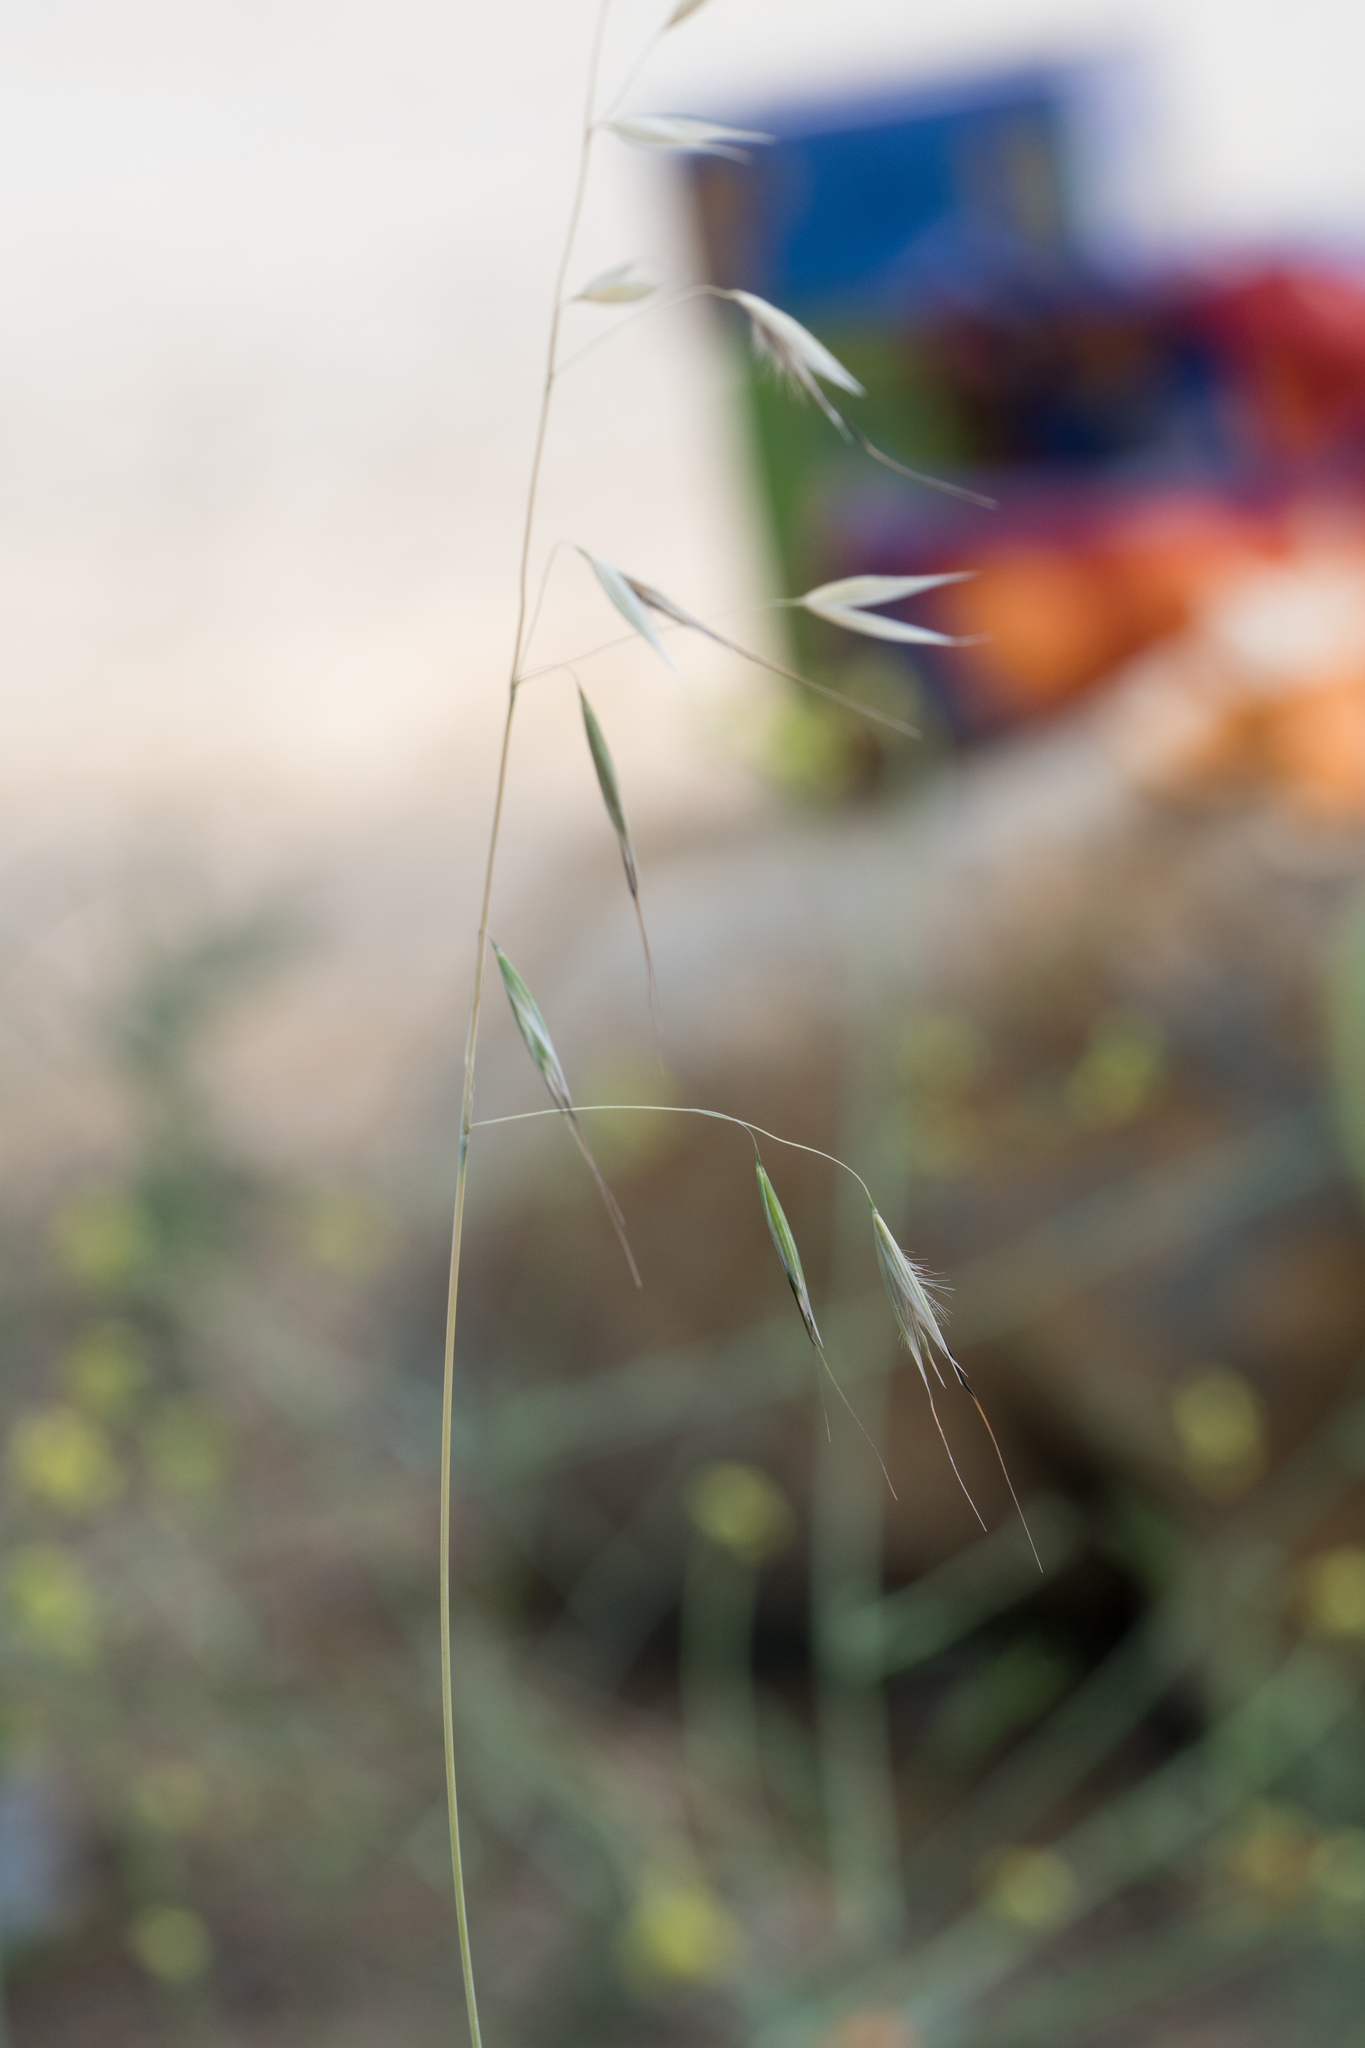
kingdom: Plantae
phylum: Tracheophyta
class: Liliopsida
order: Poales
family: Poaceae
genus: Avena
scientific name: Avena barbata
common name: Slender oat
